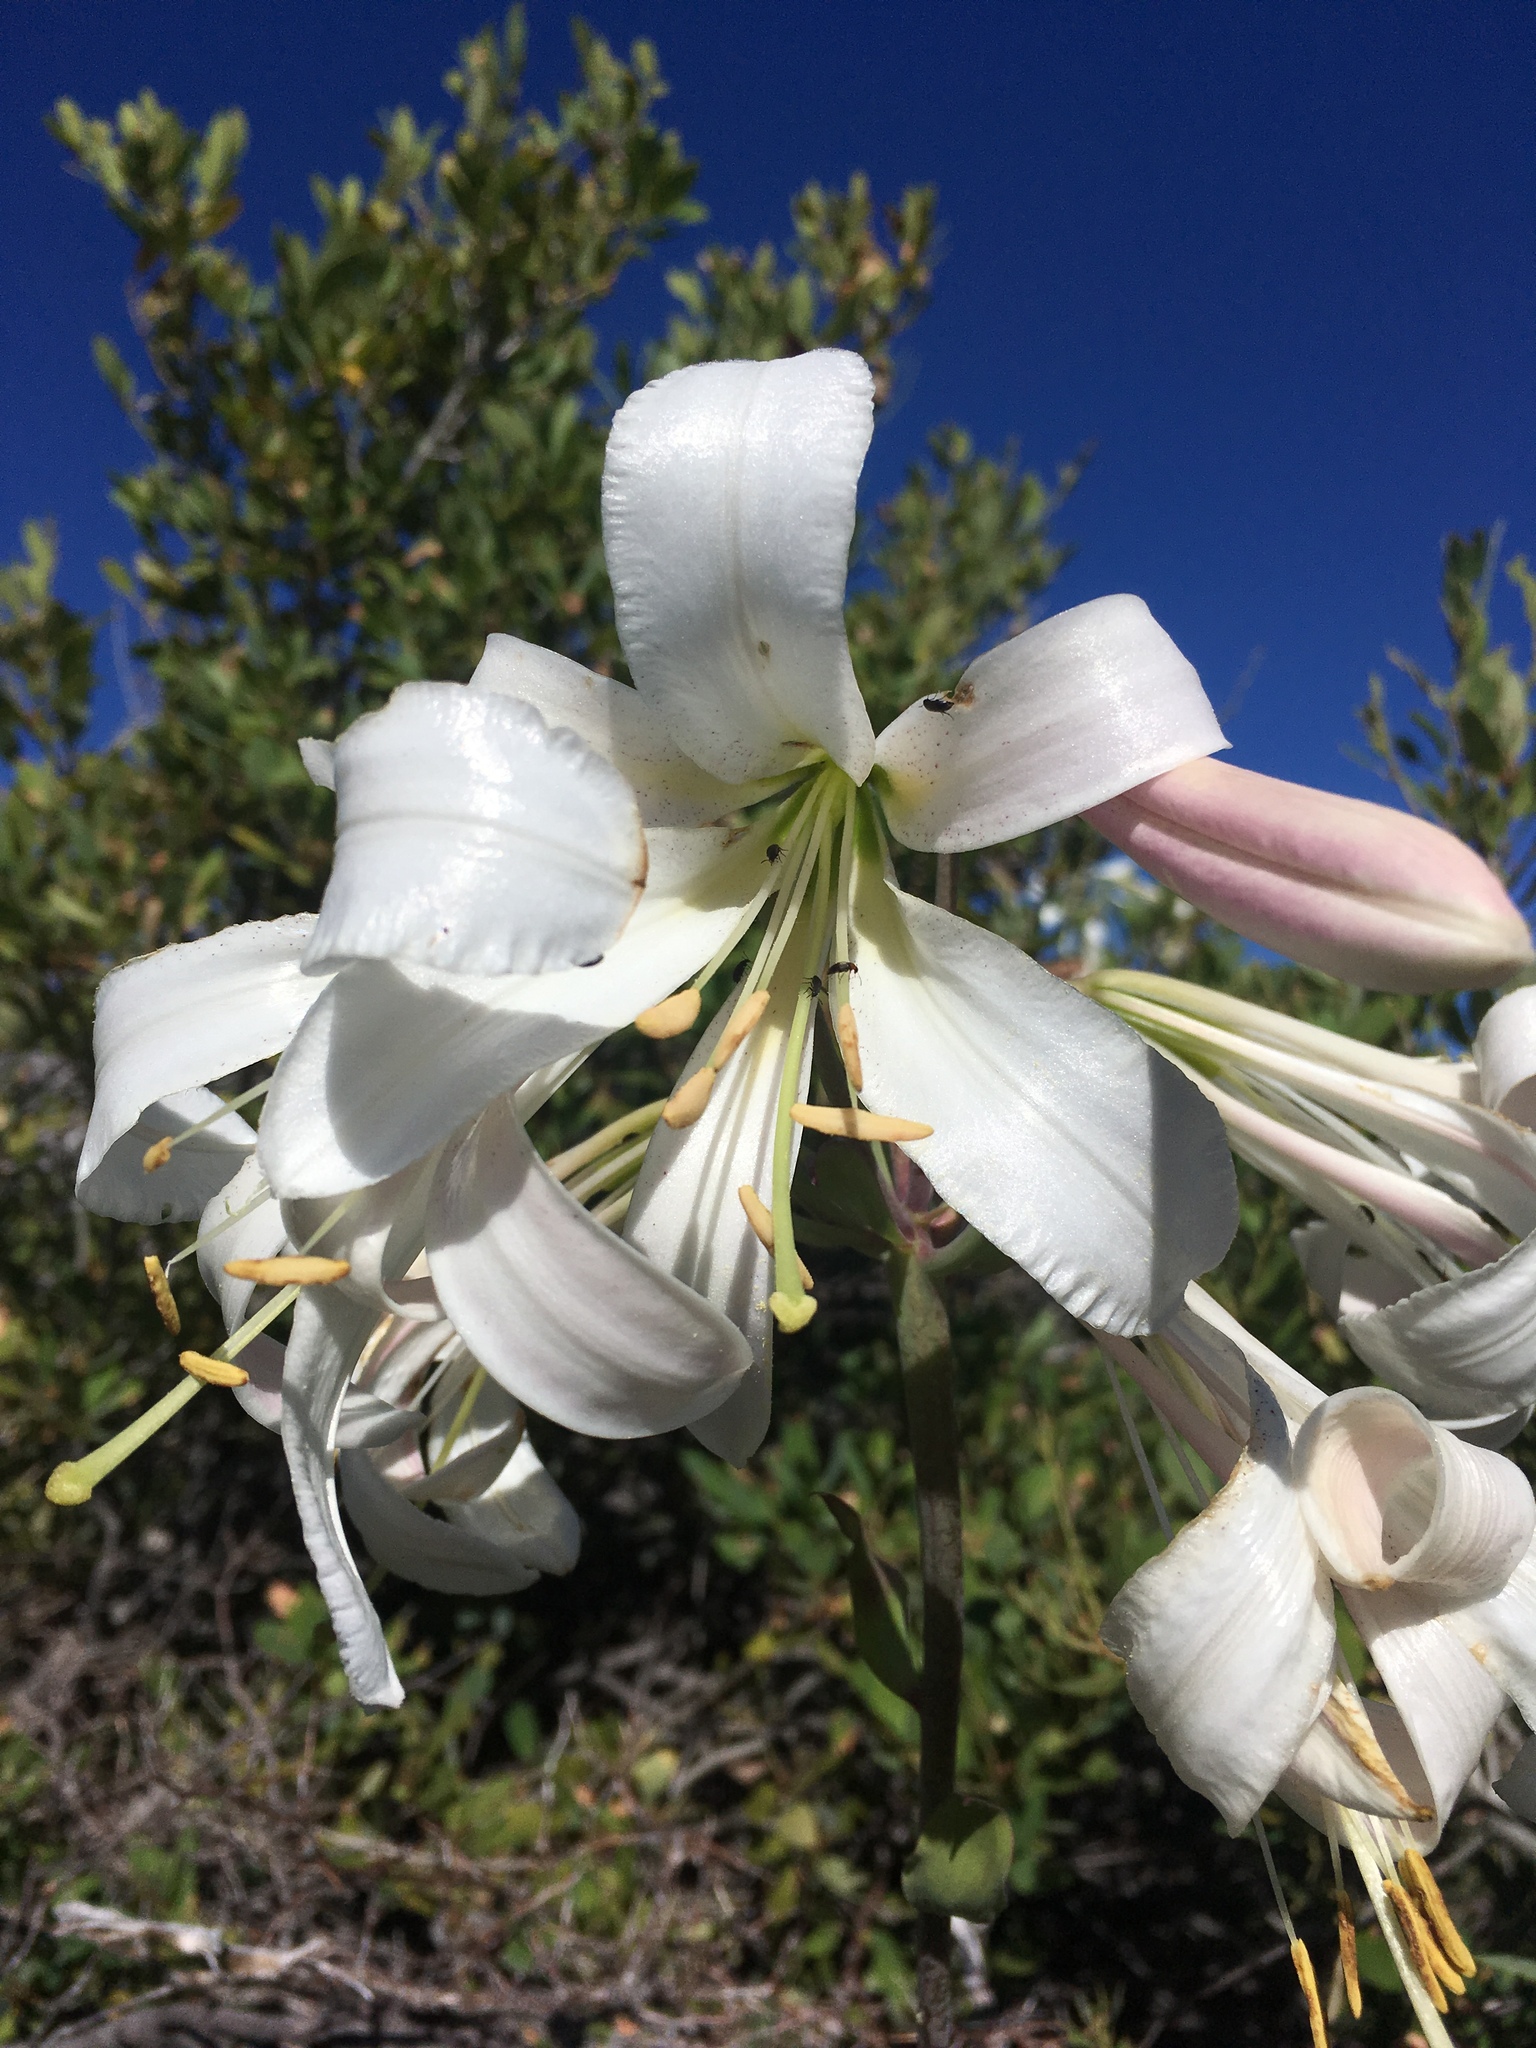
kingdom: Plantae
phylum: Tracheophyta
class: Liliopsida
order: Liliales
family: Liliaceae
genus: Lilium
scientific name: Lilium washingtonianum
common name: Washington lily
